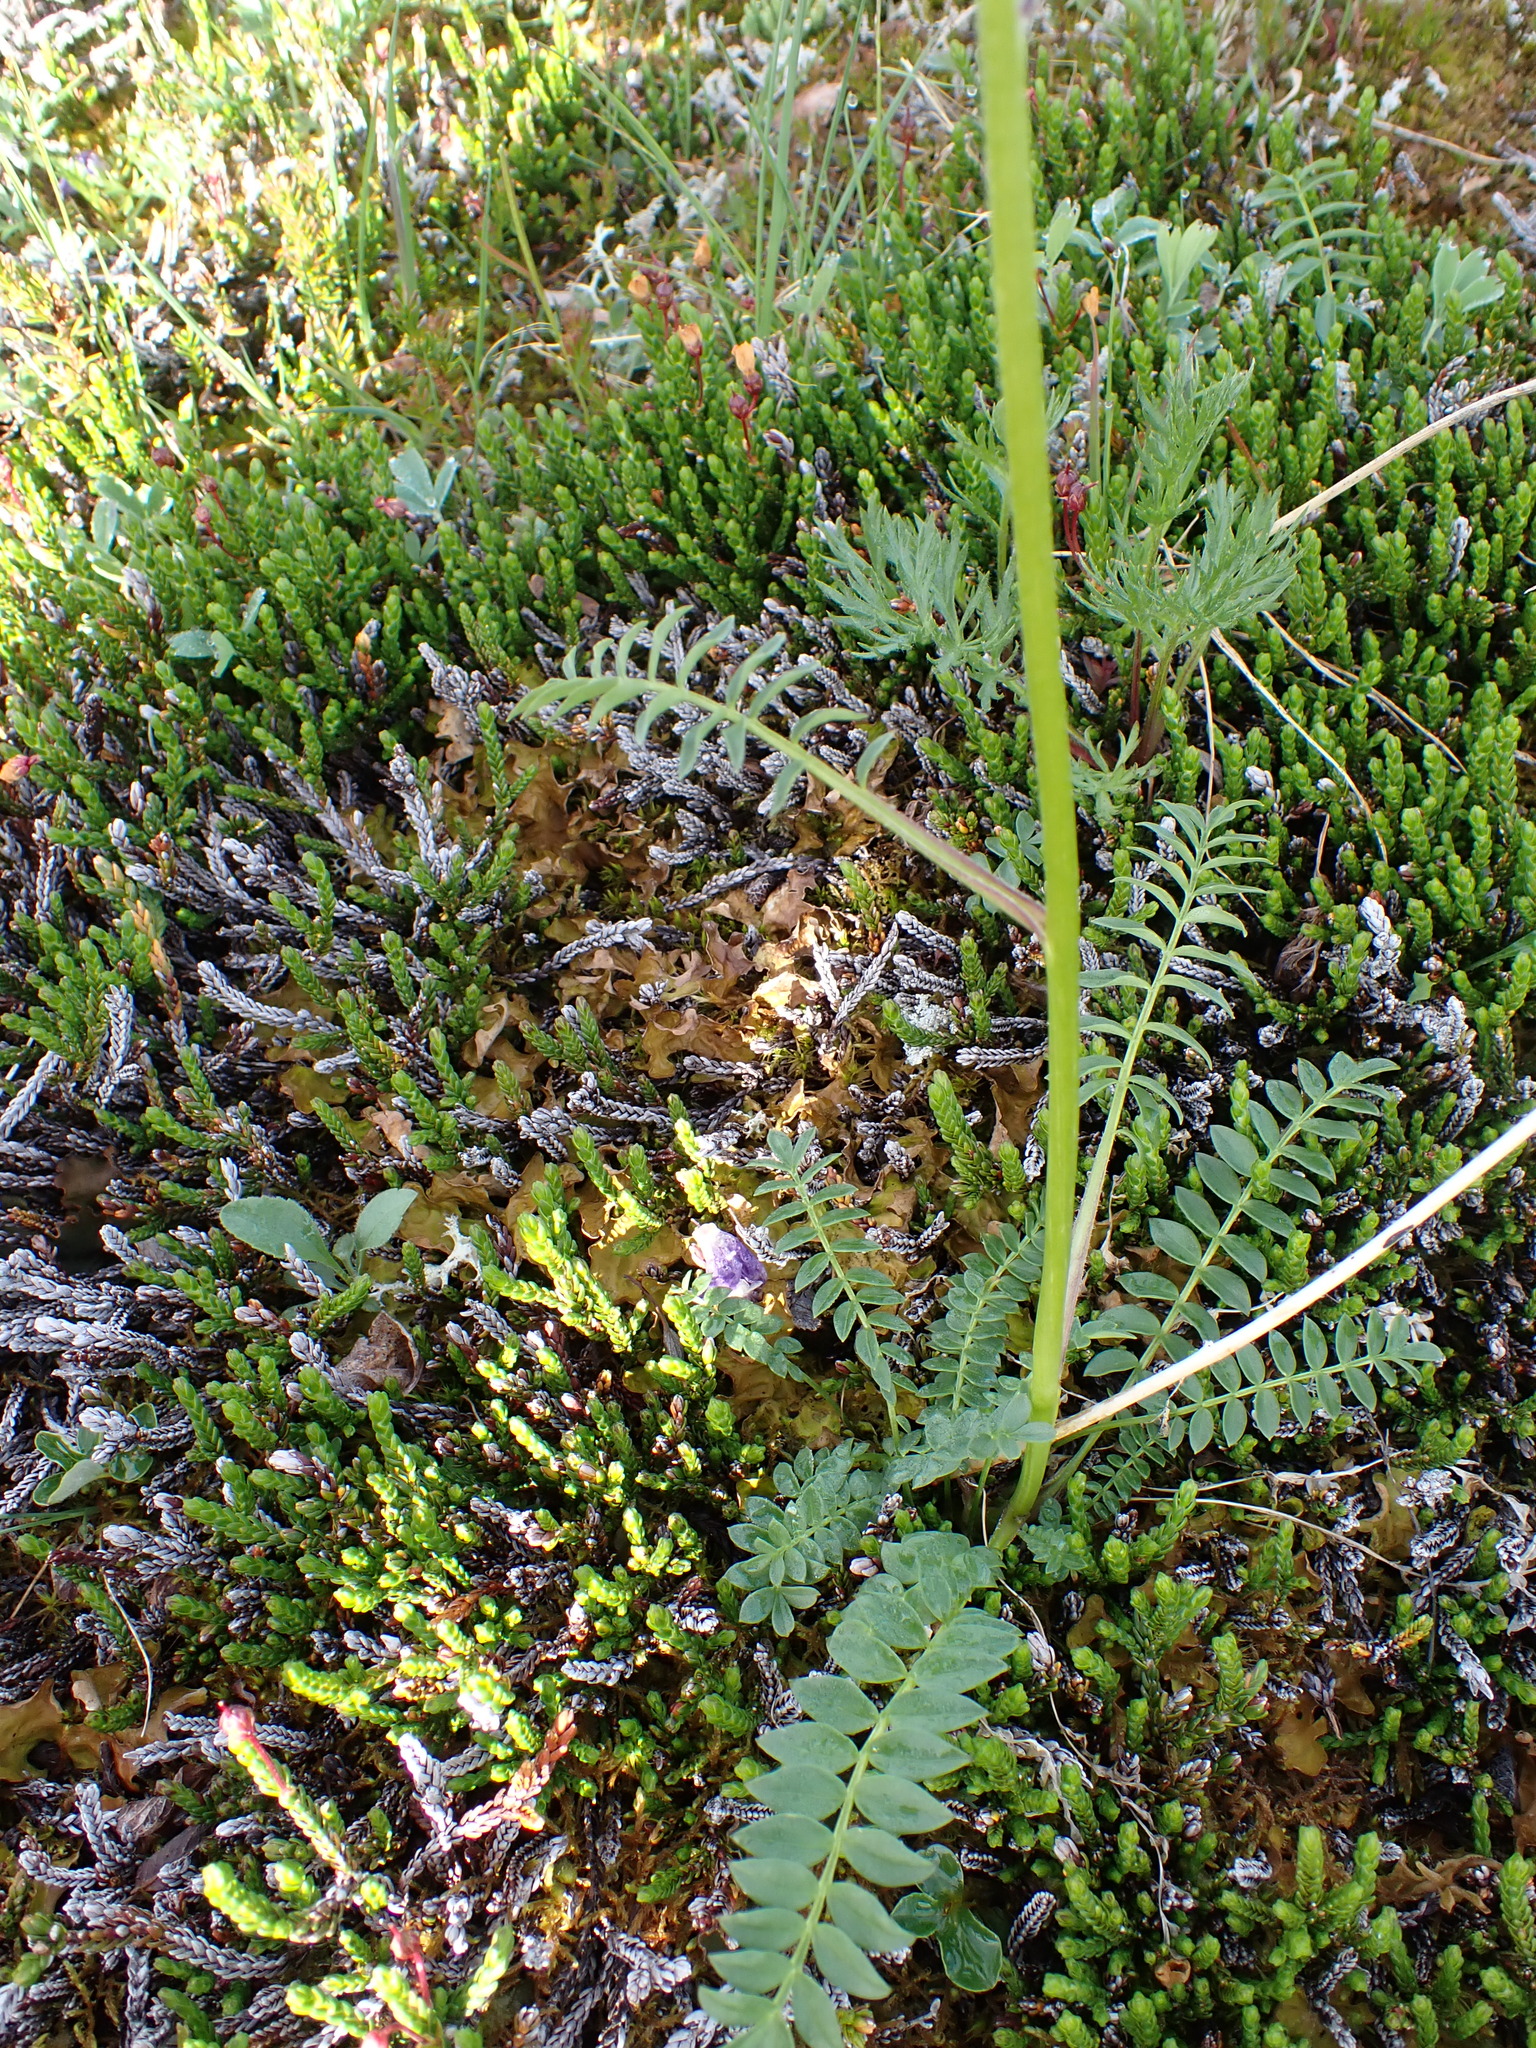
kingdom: Plantae
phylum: Tracheophyta
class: Magnoliopsida
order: Ericales
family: Polemoniaceae
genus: Polemonium
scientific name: Polemonium acutiflorum
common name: Tall jacob's-ladder
